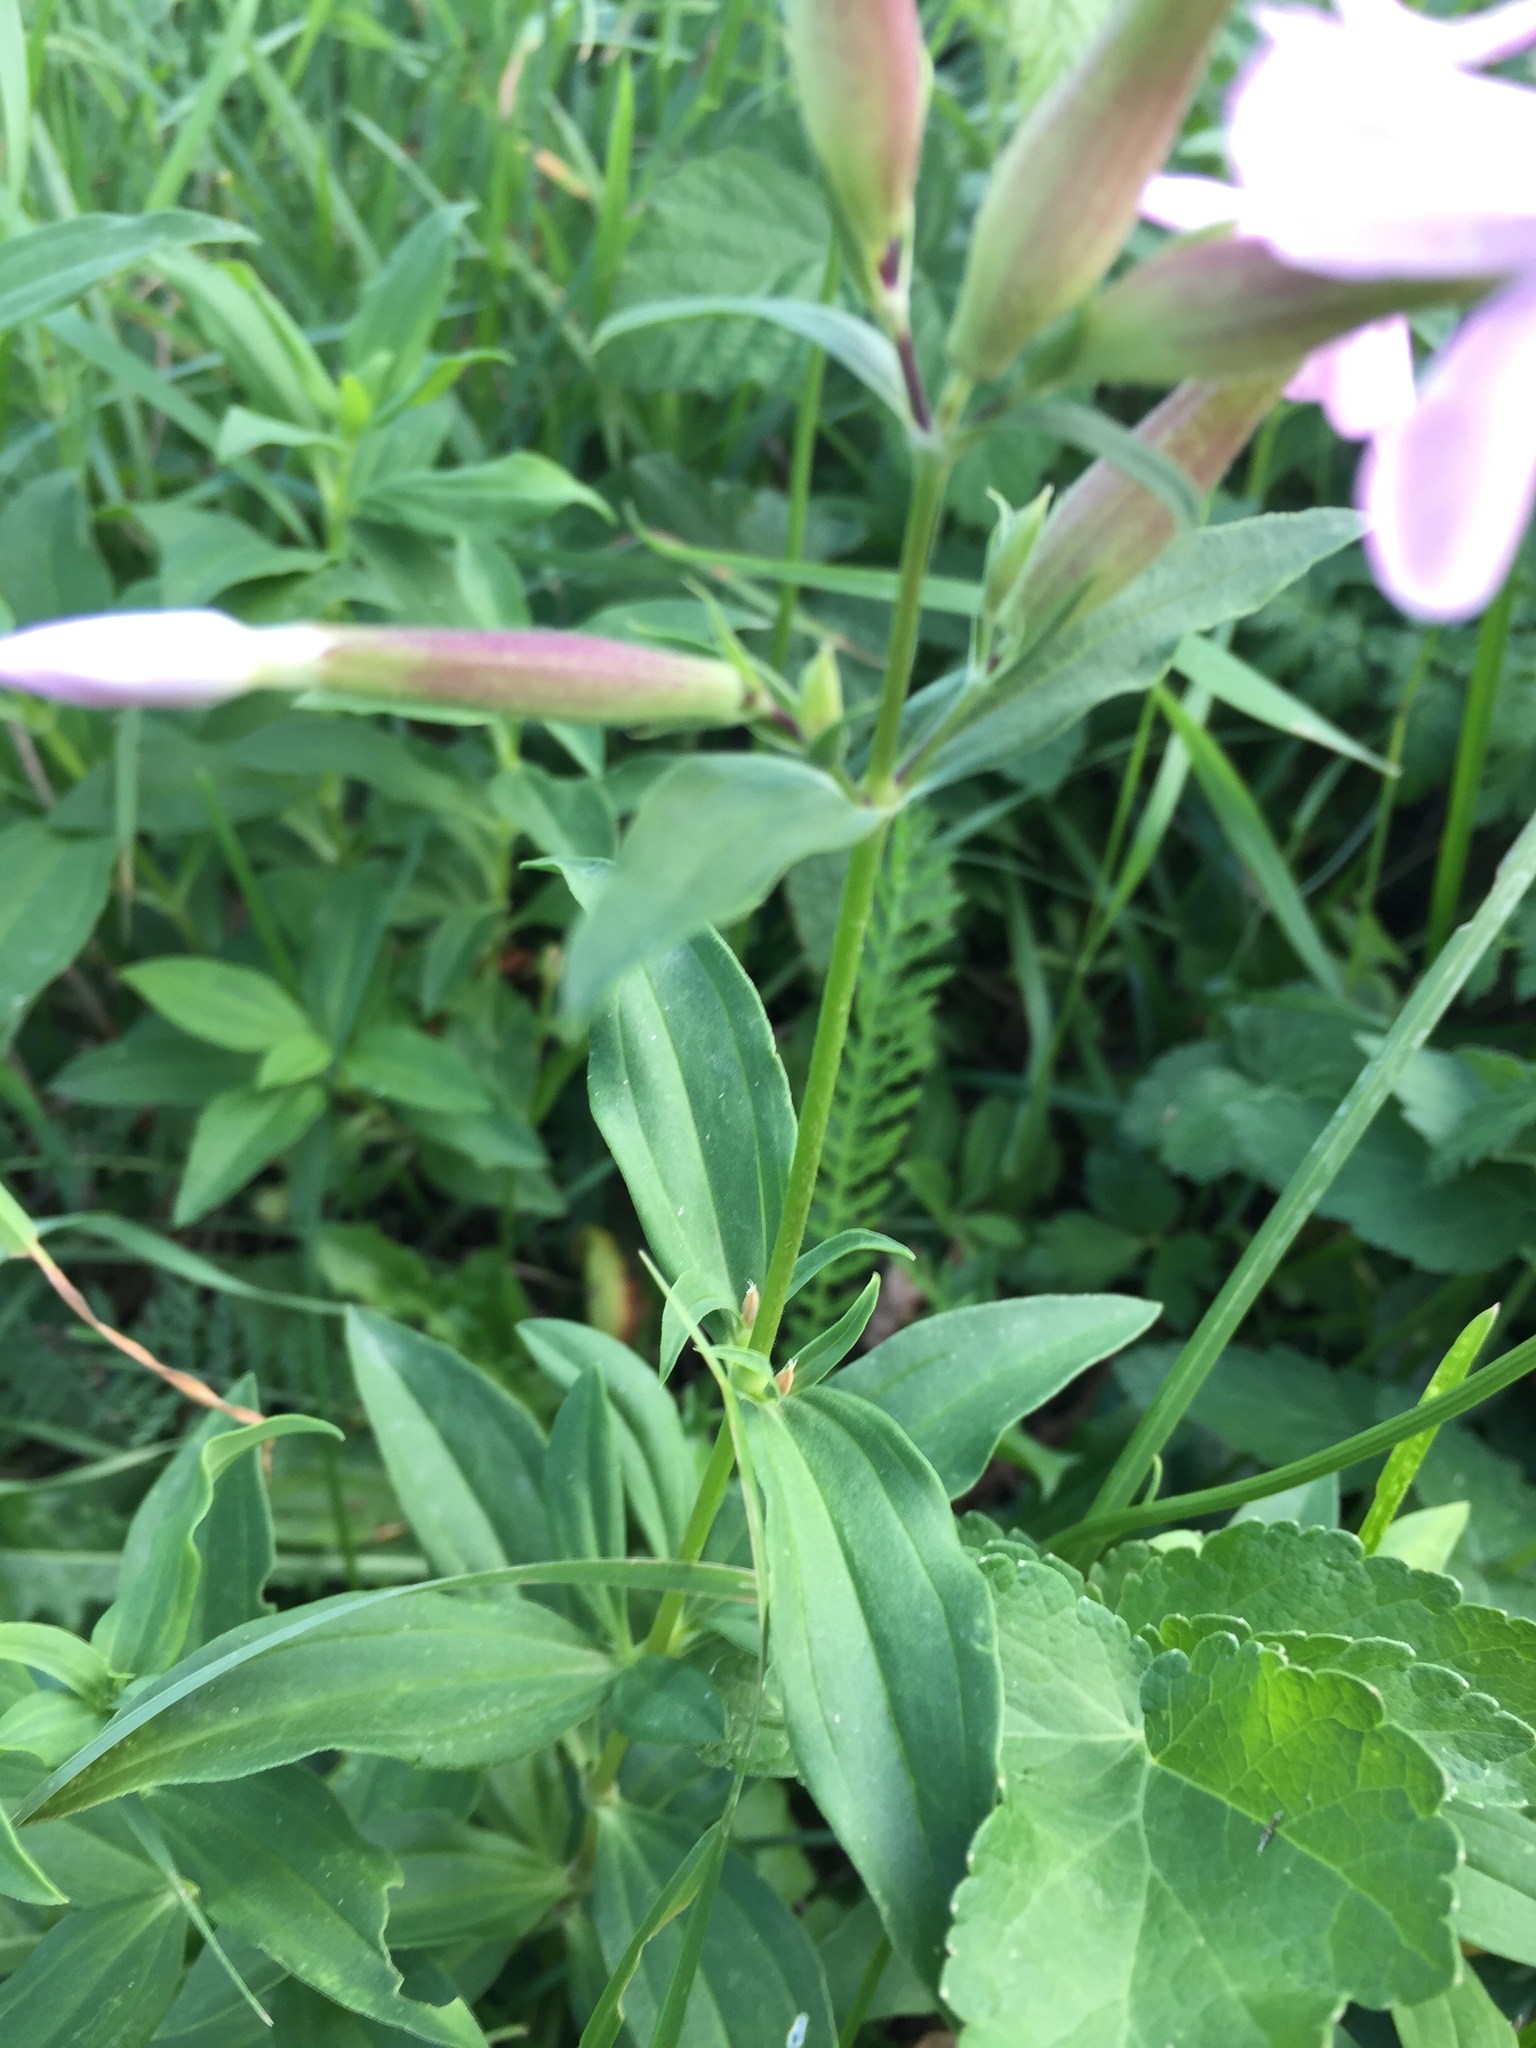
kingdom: Plantae
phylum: Tracheophyta
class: Magnoliopsida
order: Caryophyllales
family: Caryophyllaceae
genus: Saponaria
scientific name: Saponaria officinalis
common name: Soapwort
